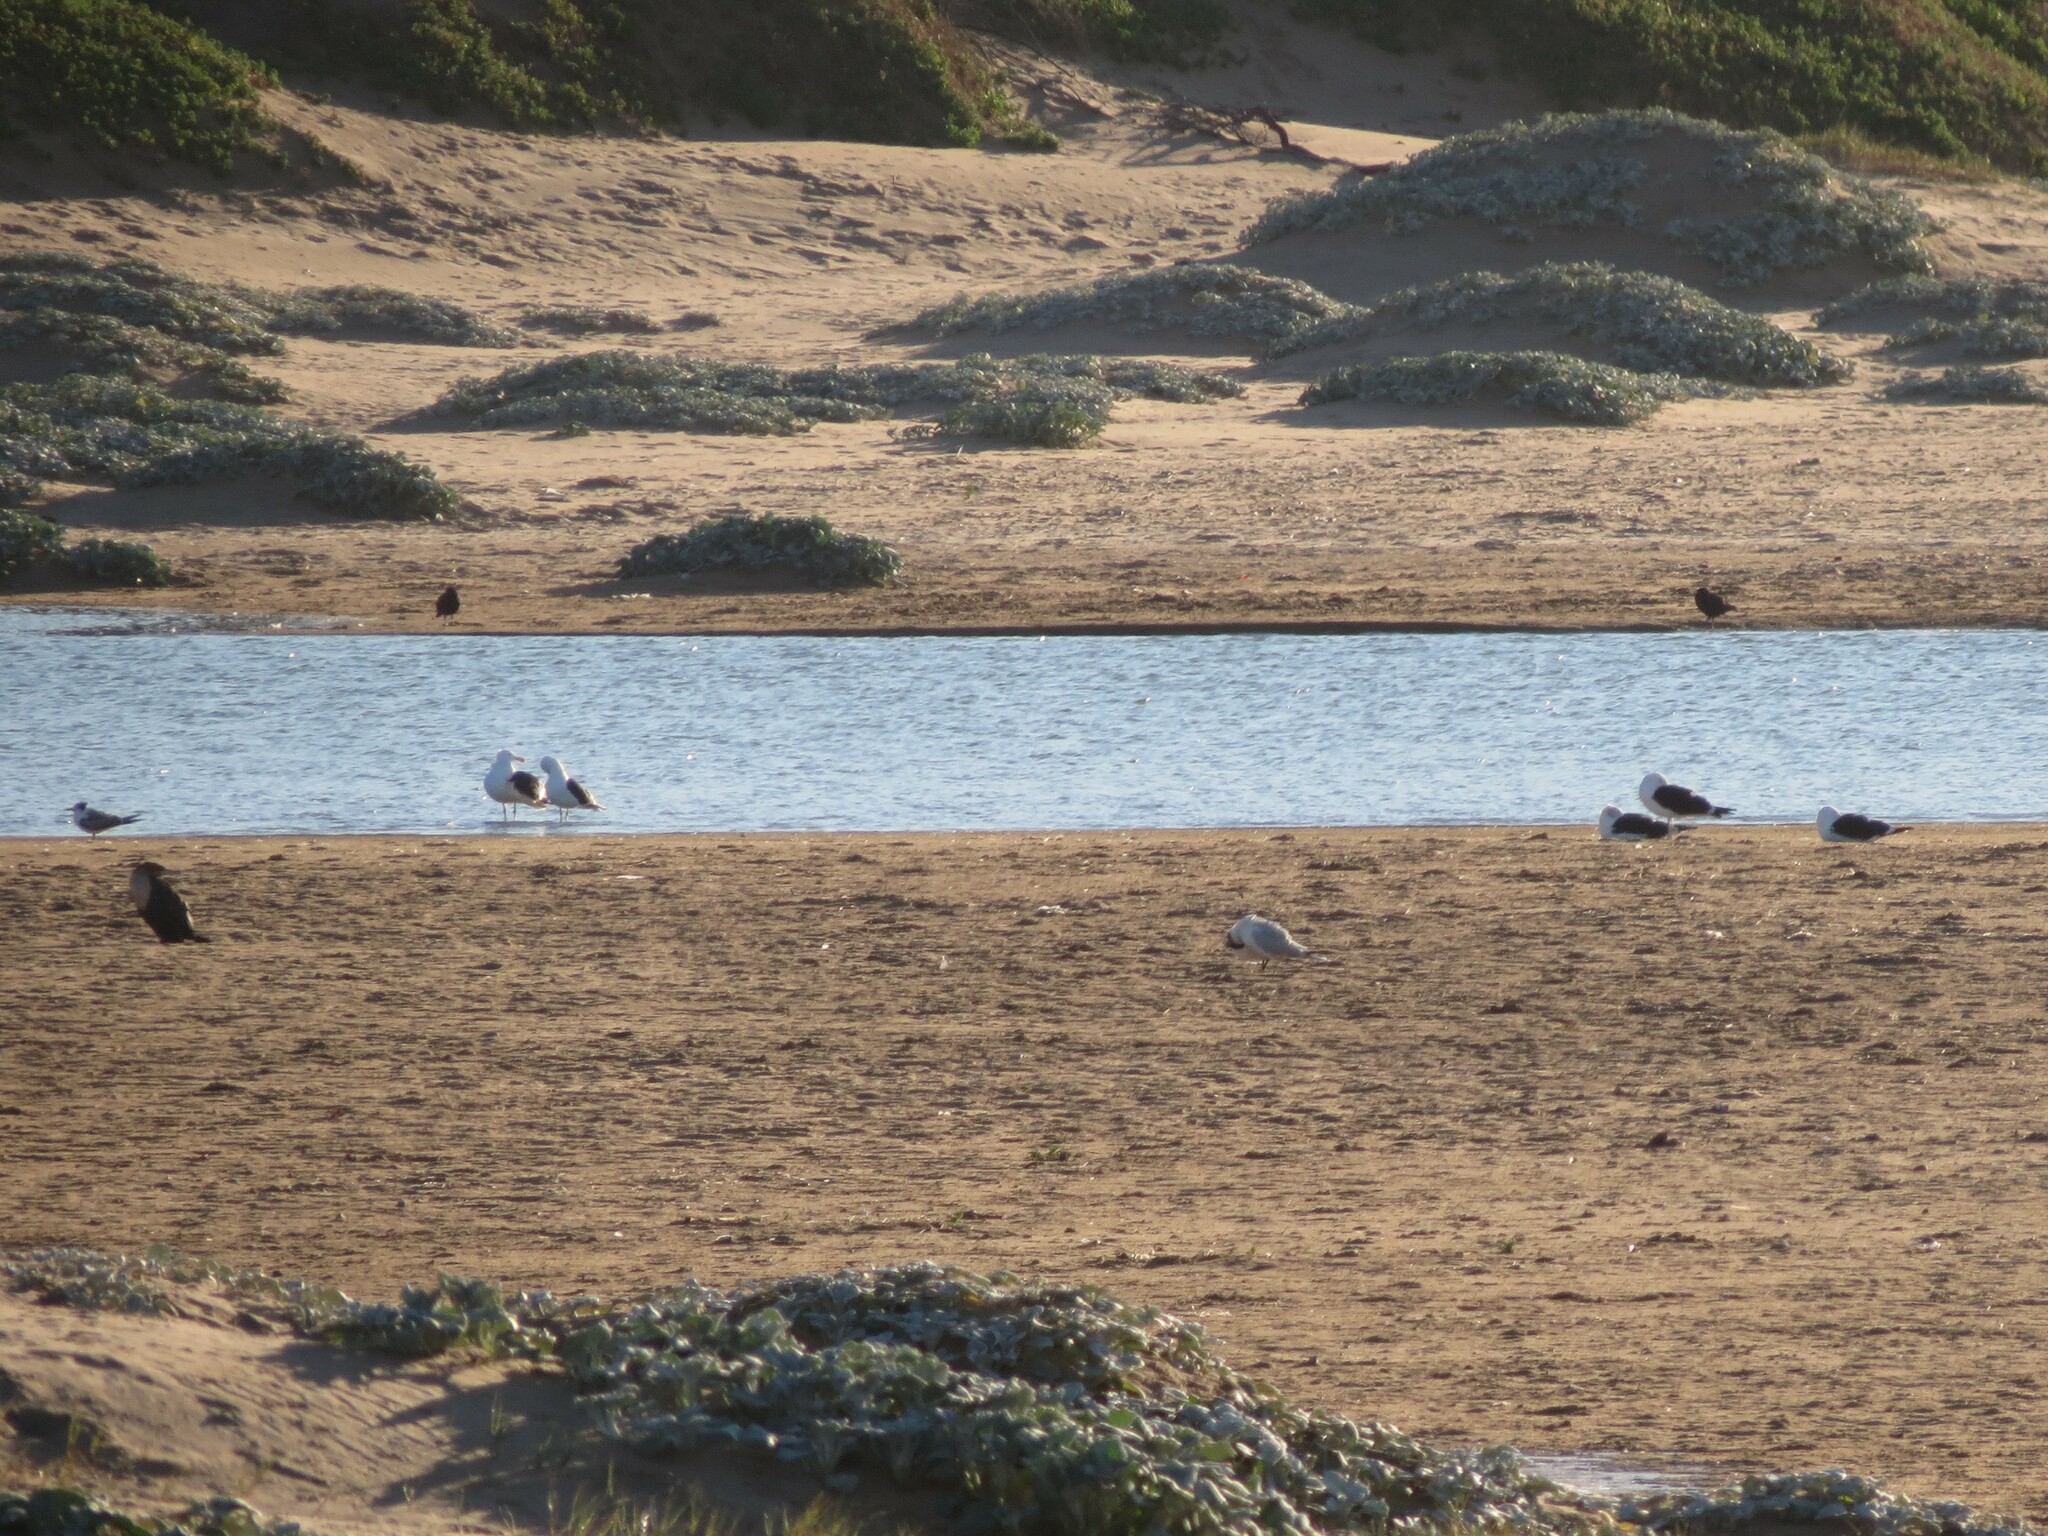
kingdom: Animalia
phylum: Chordata
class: Aves
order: Charadriiformes
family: Laridae
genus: Larus
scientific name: Larus dominicanus
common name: Kelp gull
